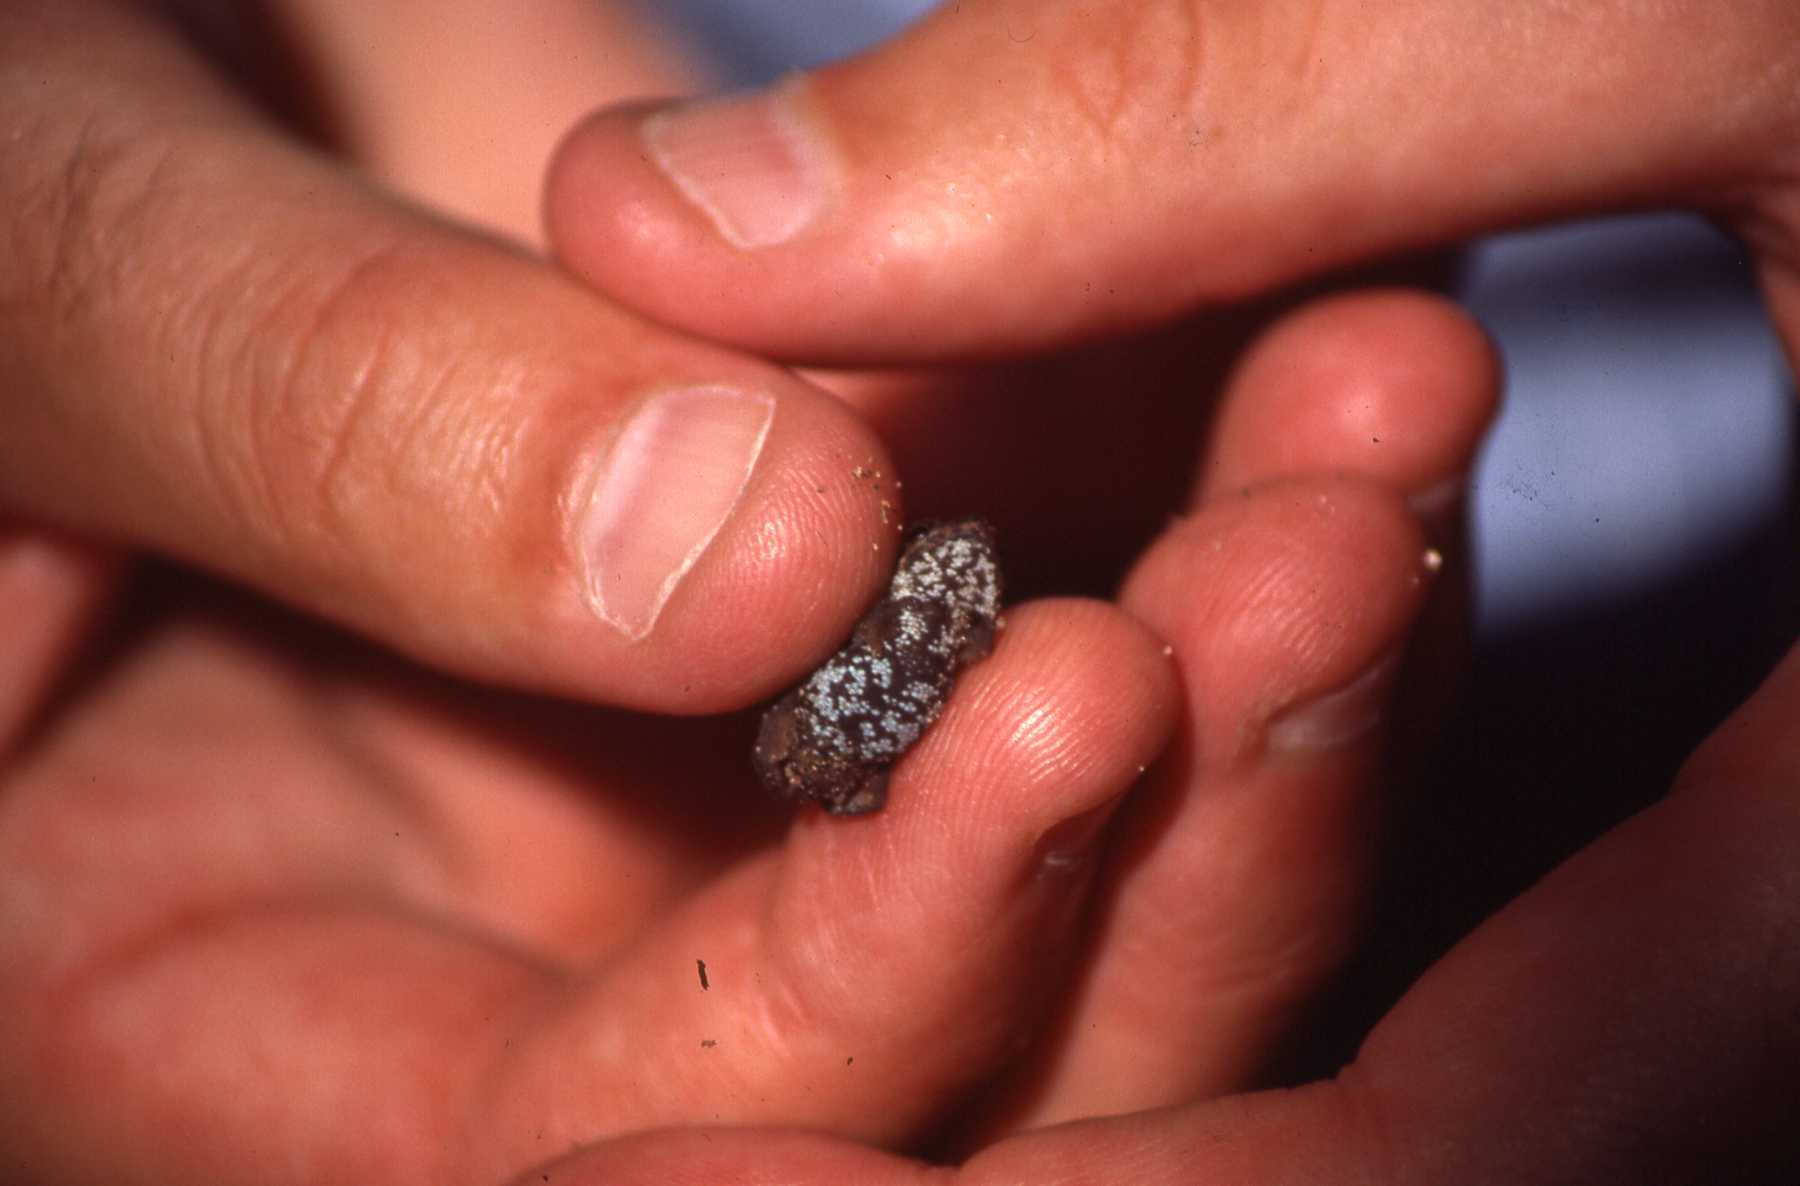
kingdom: Animalia
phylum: Chordata
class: Amphibia
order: Anura
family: Bufonidae
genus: Mertensophryne
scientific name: Mertensophryne micranotis
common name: Loveridges snouted toad
